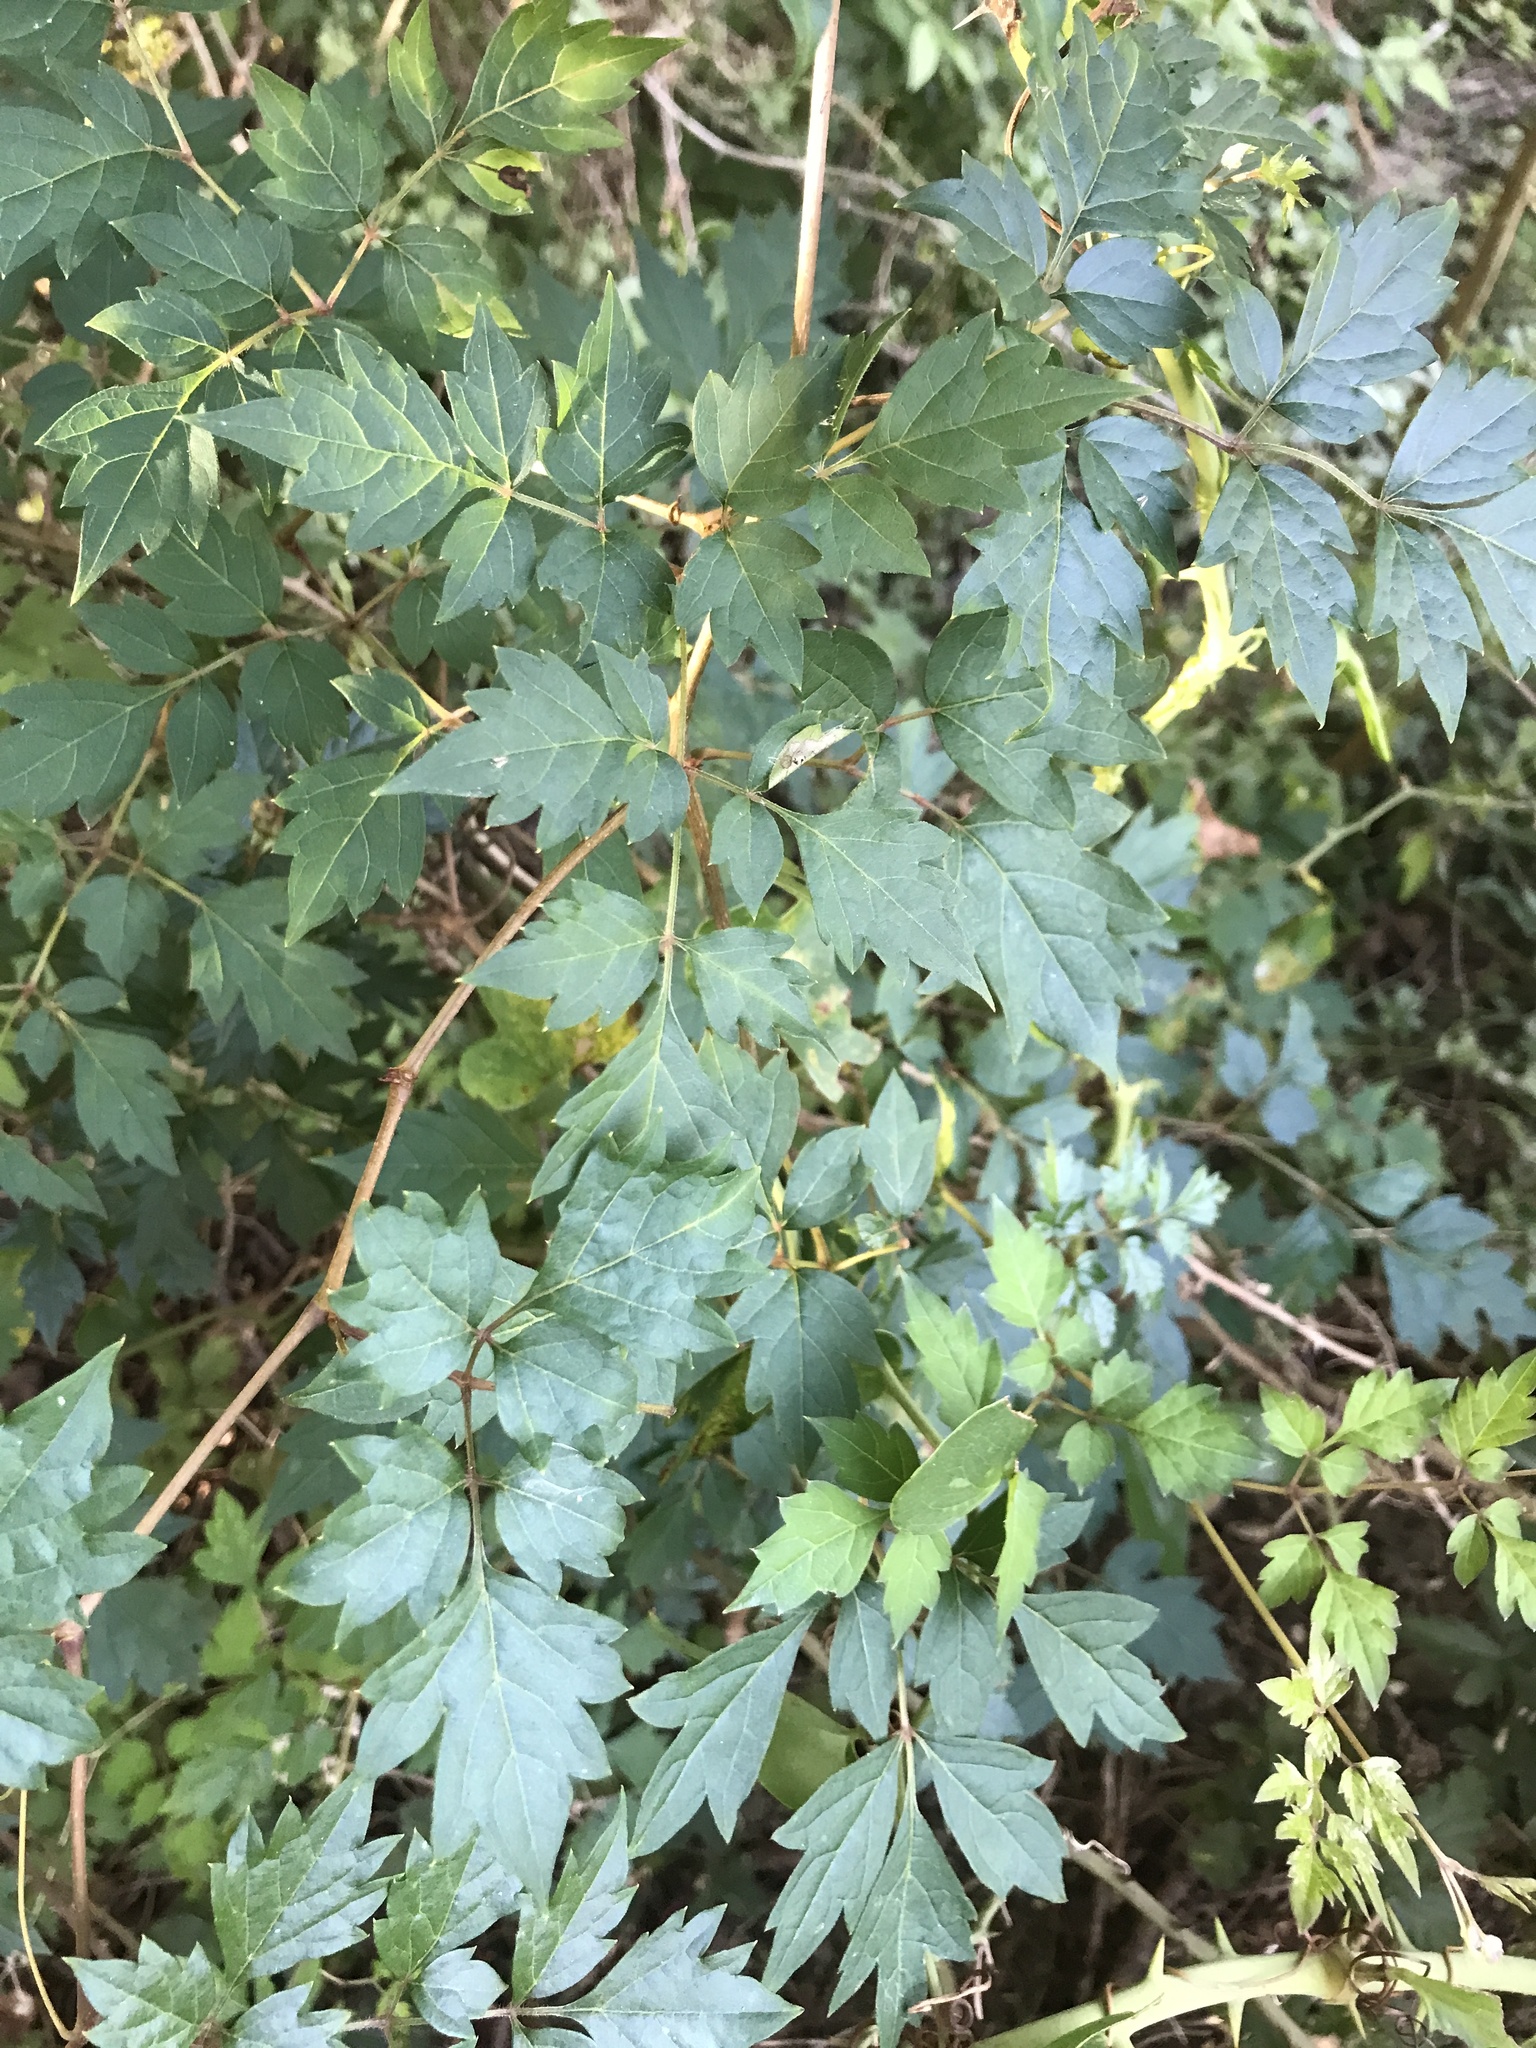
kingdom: Plantae
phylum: Tracheophyta
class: Magnoliopsida
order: Vitales
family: Vitaceae
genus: Nekemias
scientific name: Nekemias arborea
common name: Peppervine
